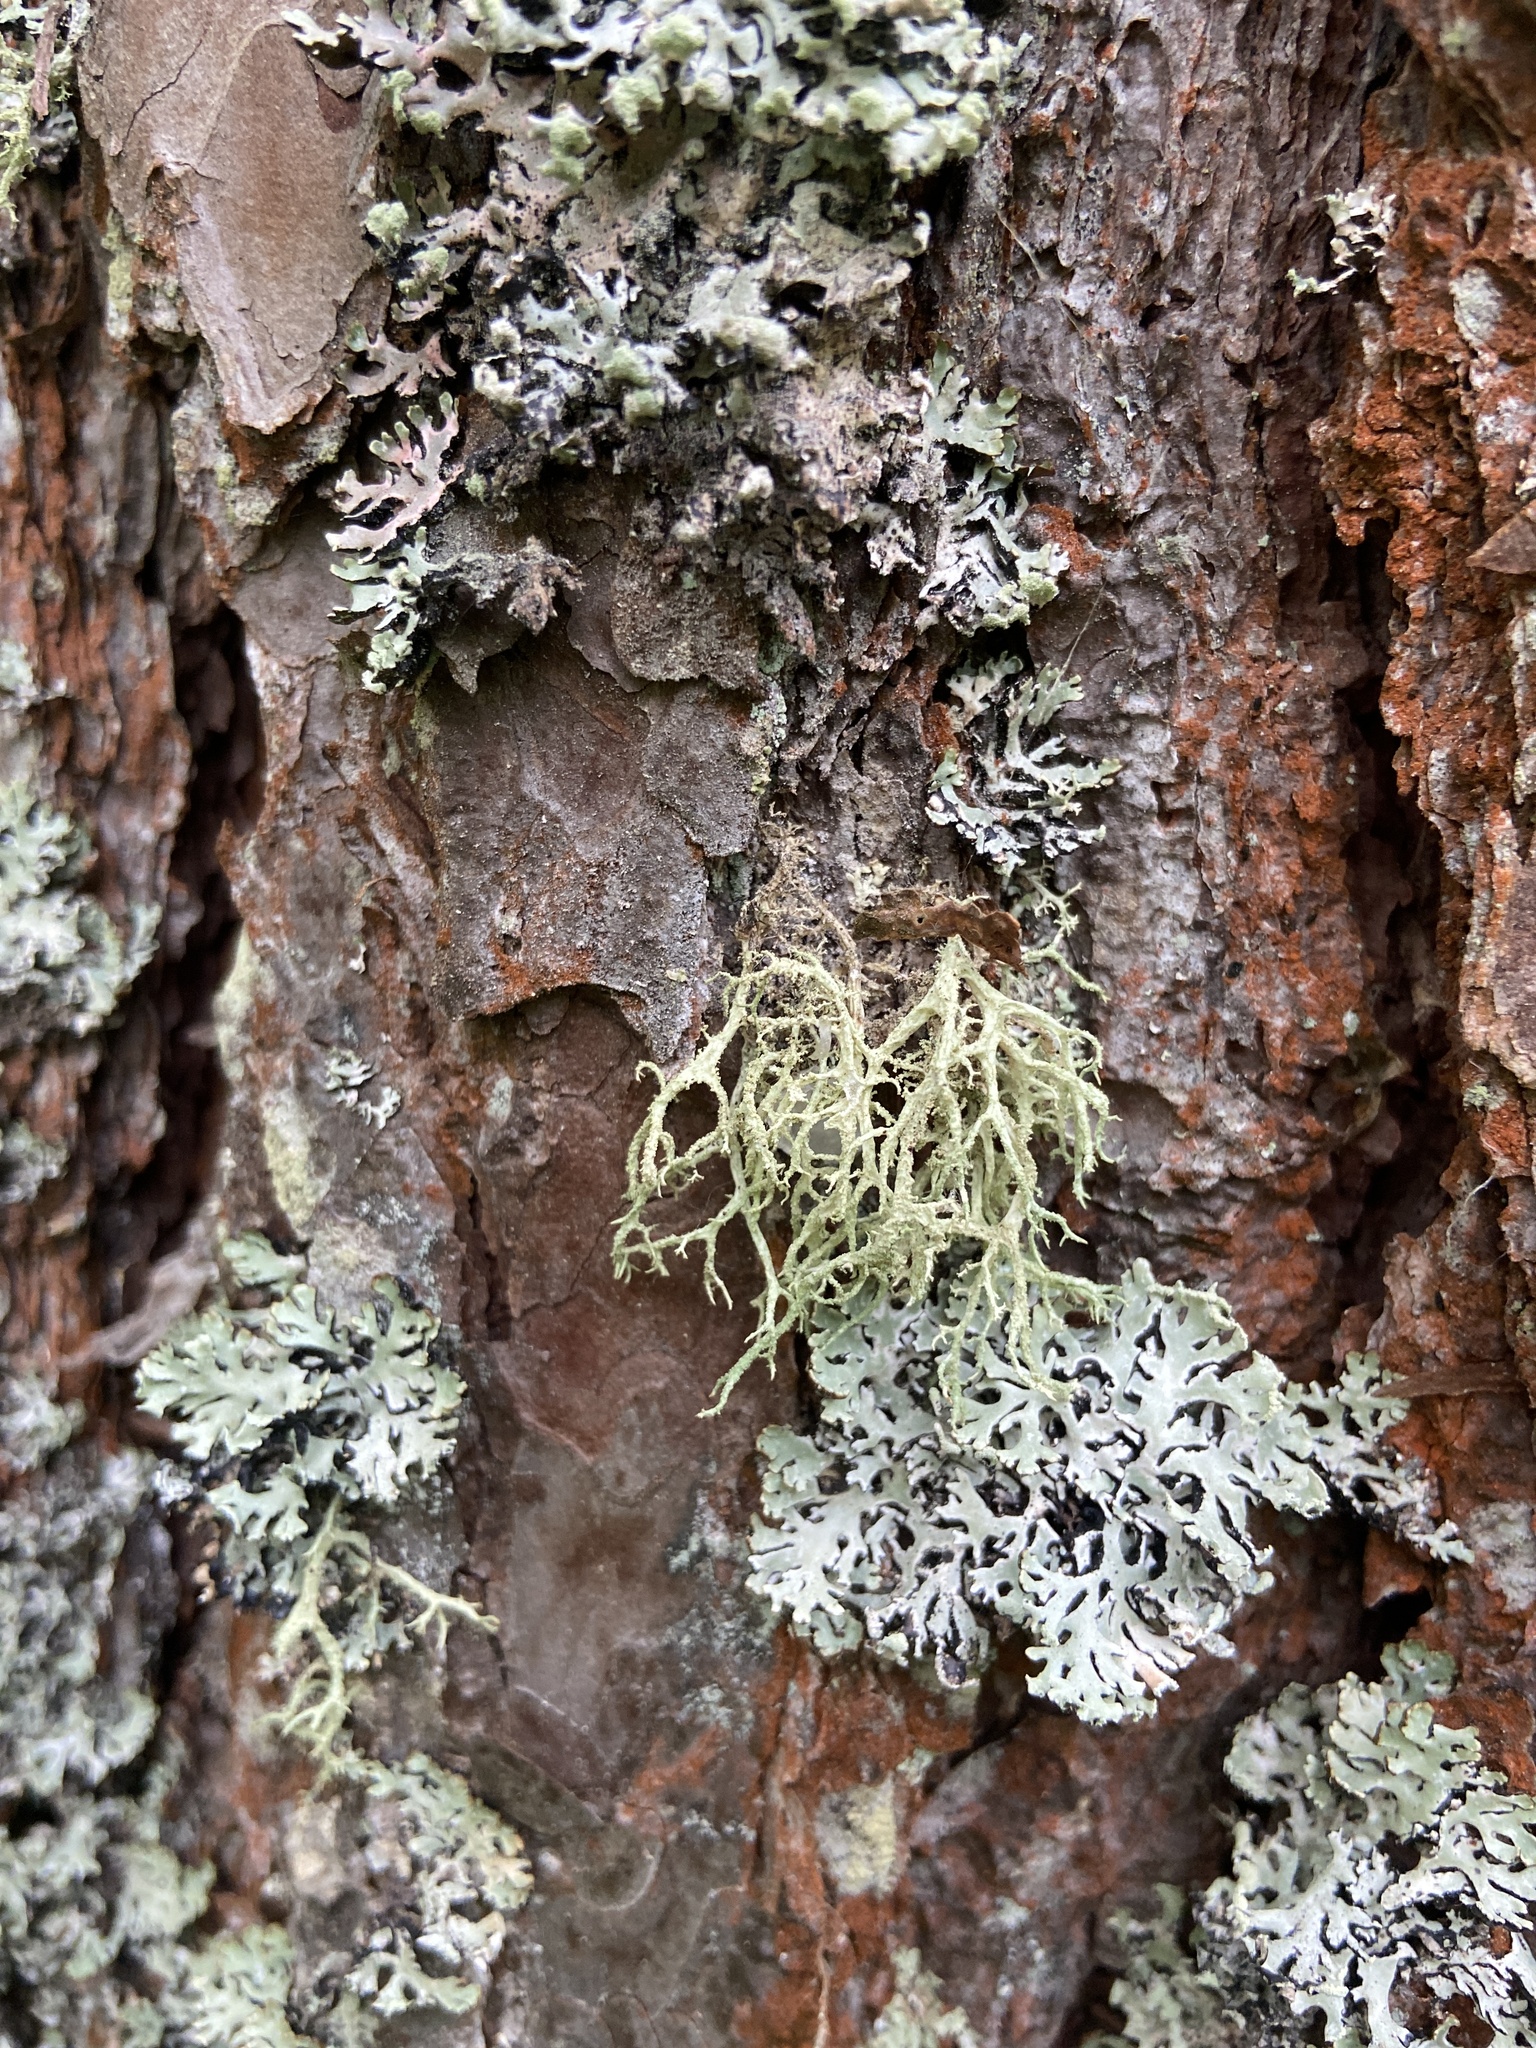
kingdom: Fungi
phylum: Ascomycota
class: Lecanoromycetes
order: Lecanorales
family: Parmeliaceae
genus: Evernia
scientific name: Evernia mesomorpha
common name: Boreal oak moss lichen
